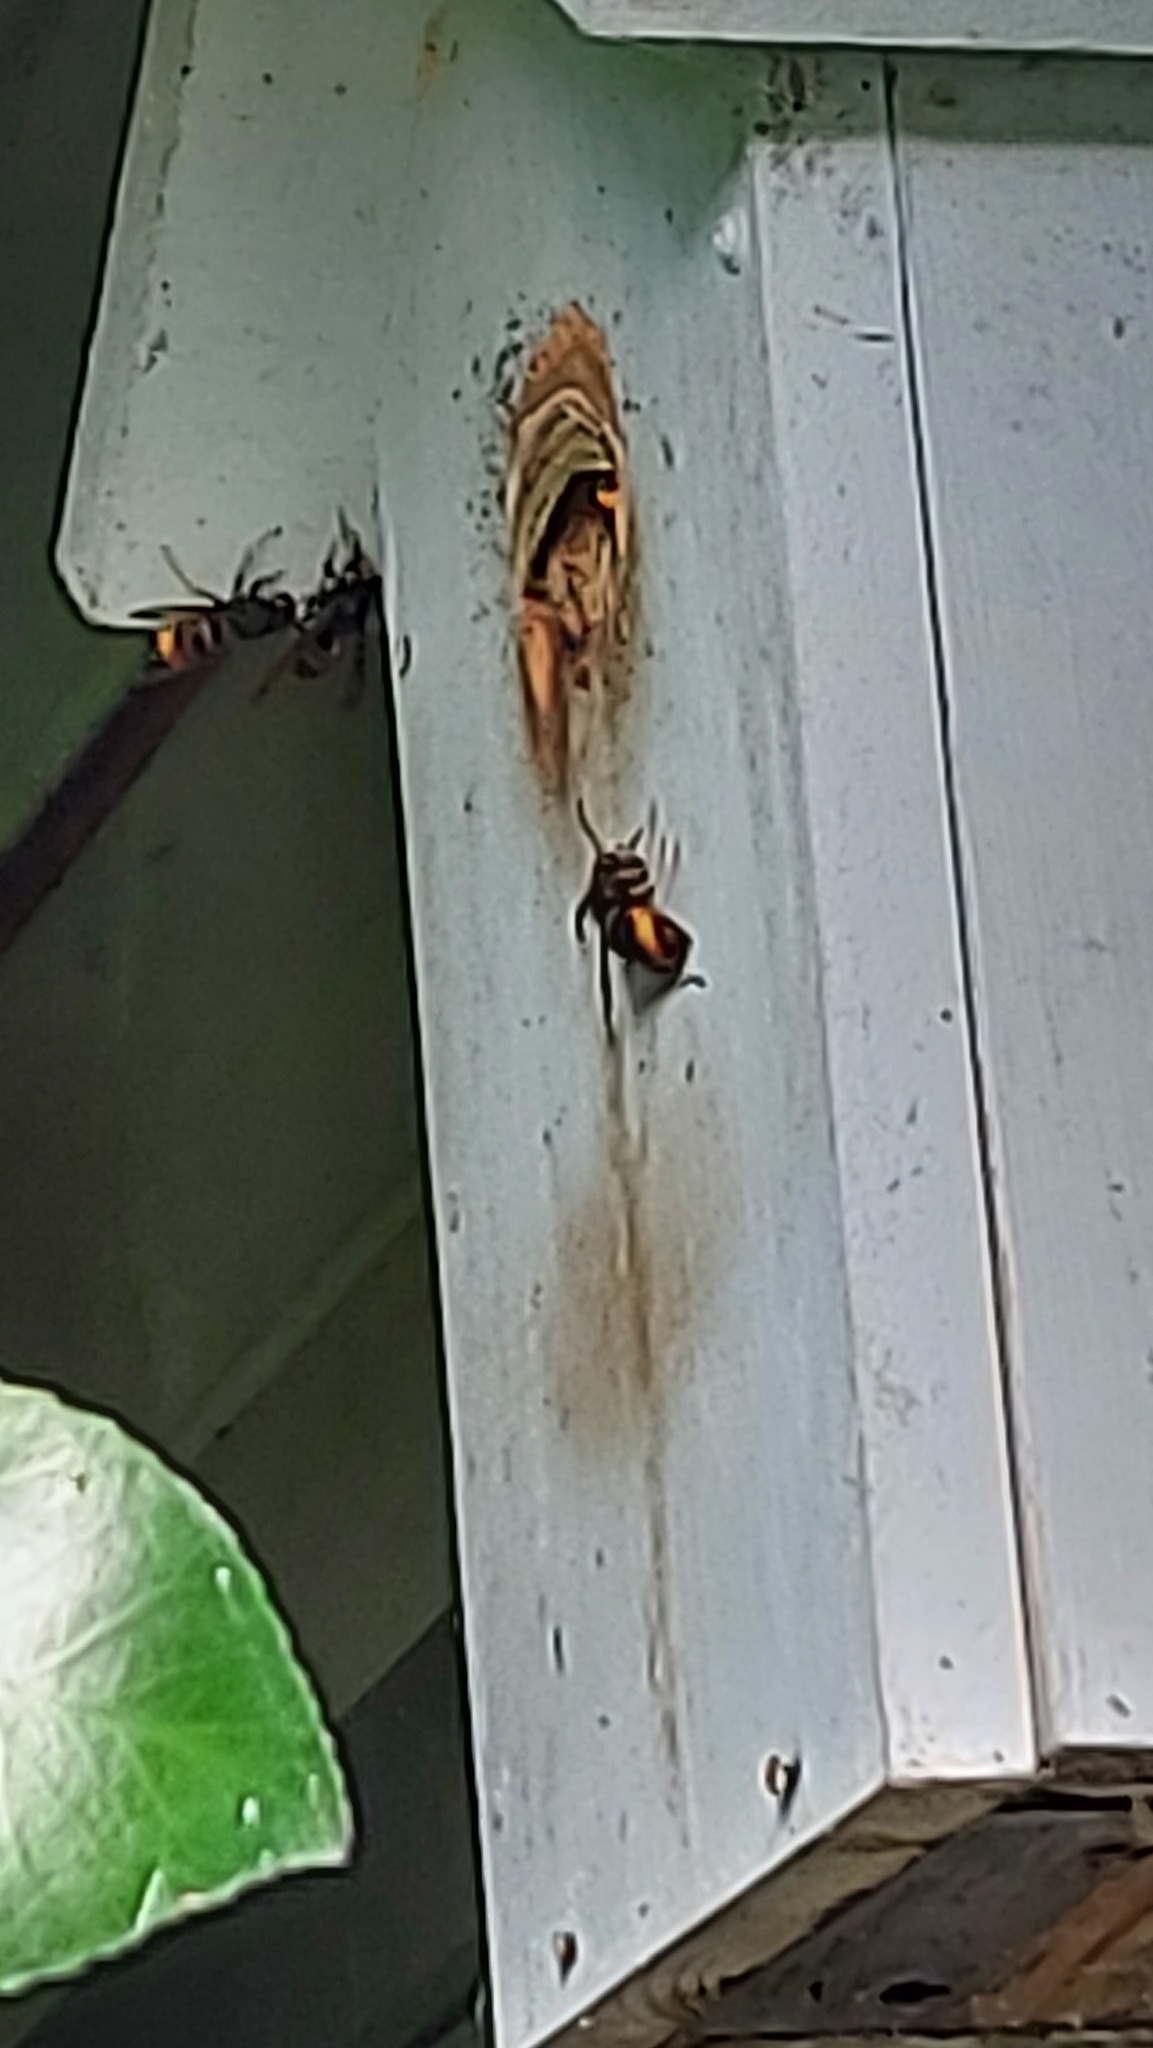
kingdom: Animalia
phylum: Arthropoda
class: Insecta
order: Hymenoptera
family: Vespidae
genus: Vespa
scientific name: Vespa velutina
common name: Asian hornet
